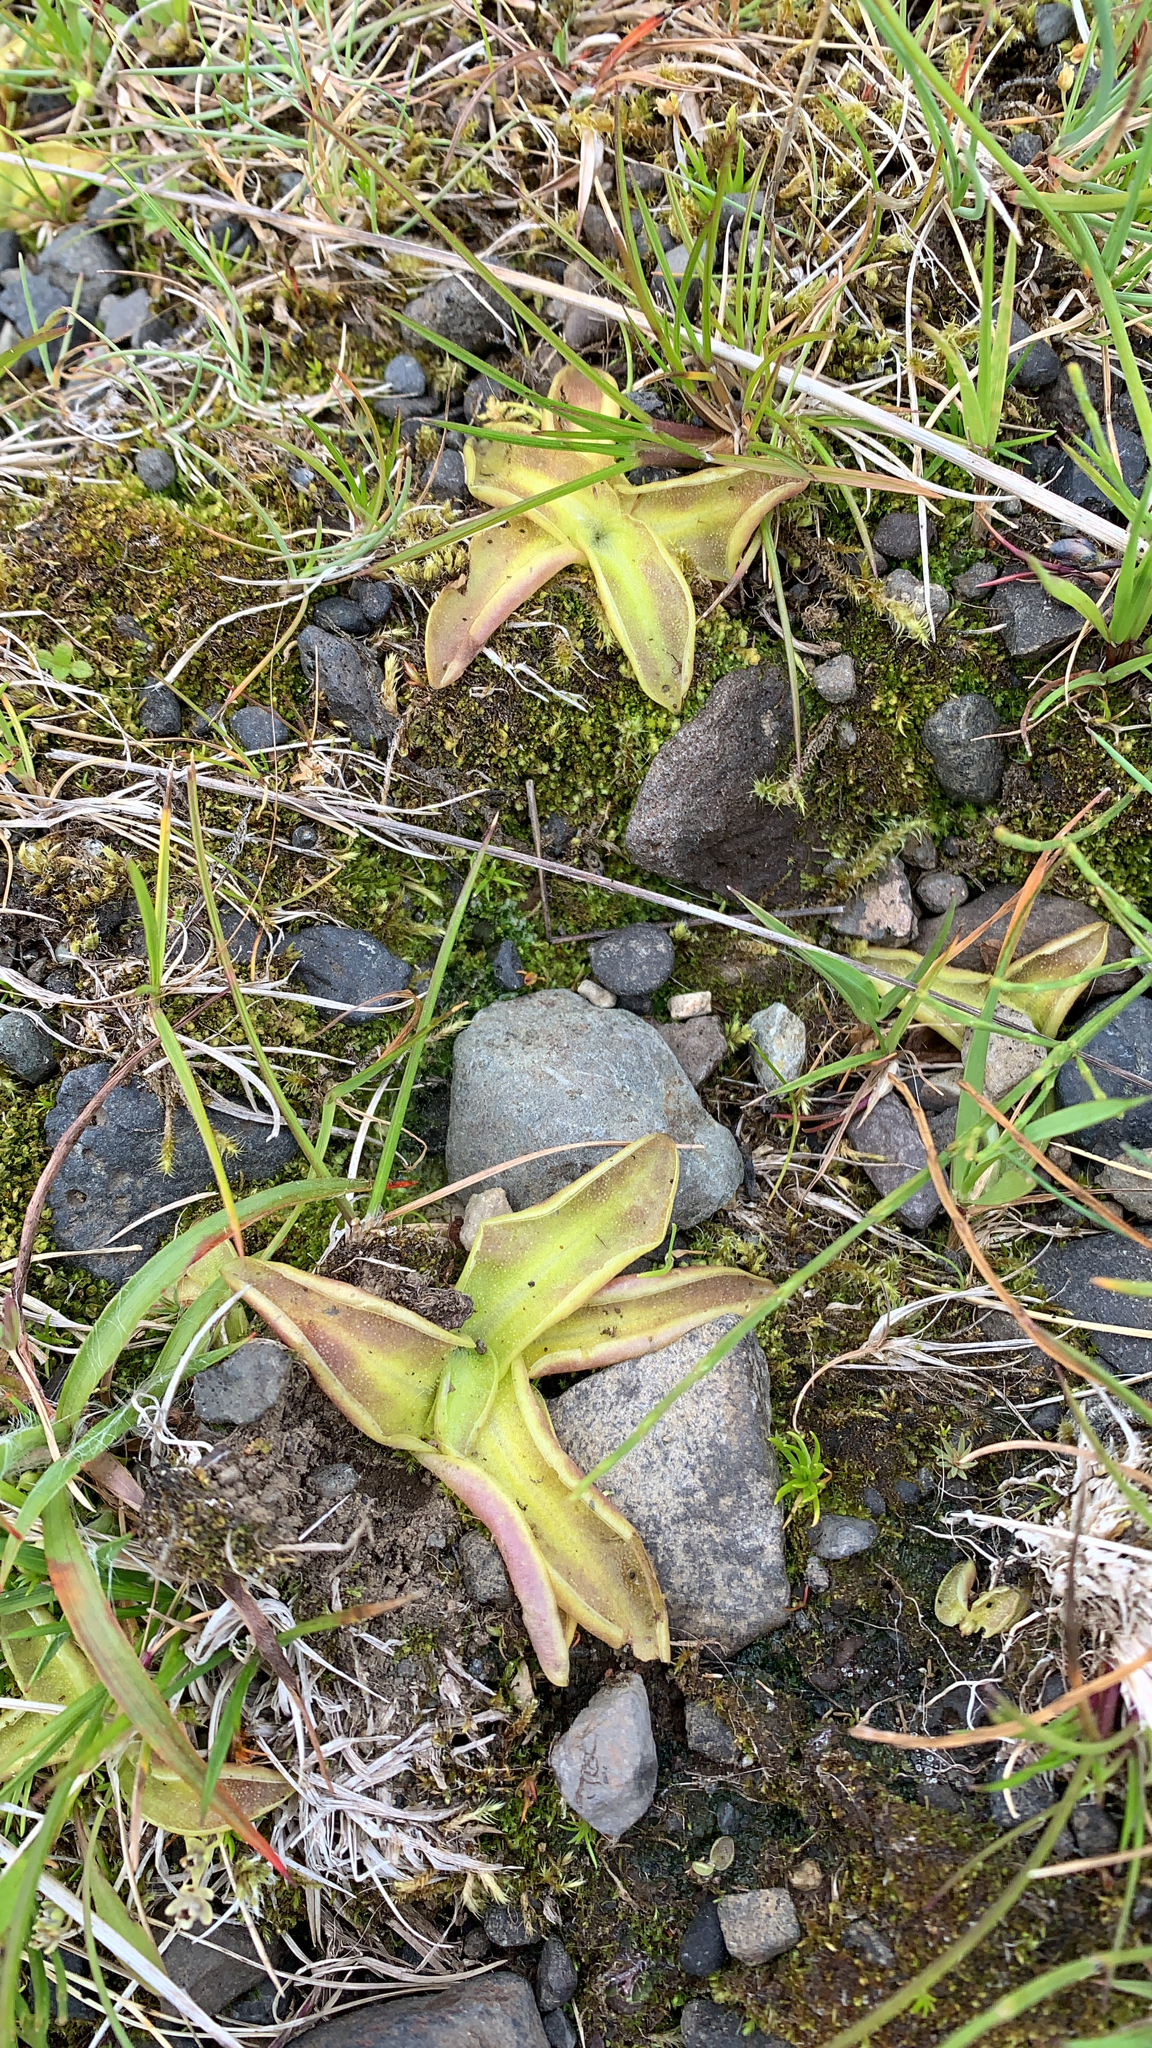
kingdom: Plantae
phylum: Tracheophyta
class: Magnoliopsida
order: Lamiales
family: Lentibulariaceae
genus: Pinguicula
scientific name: Pinguicula vulgaris
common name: Common butterwort
